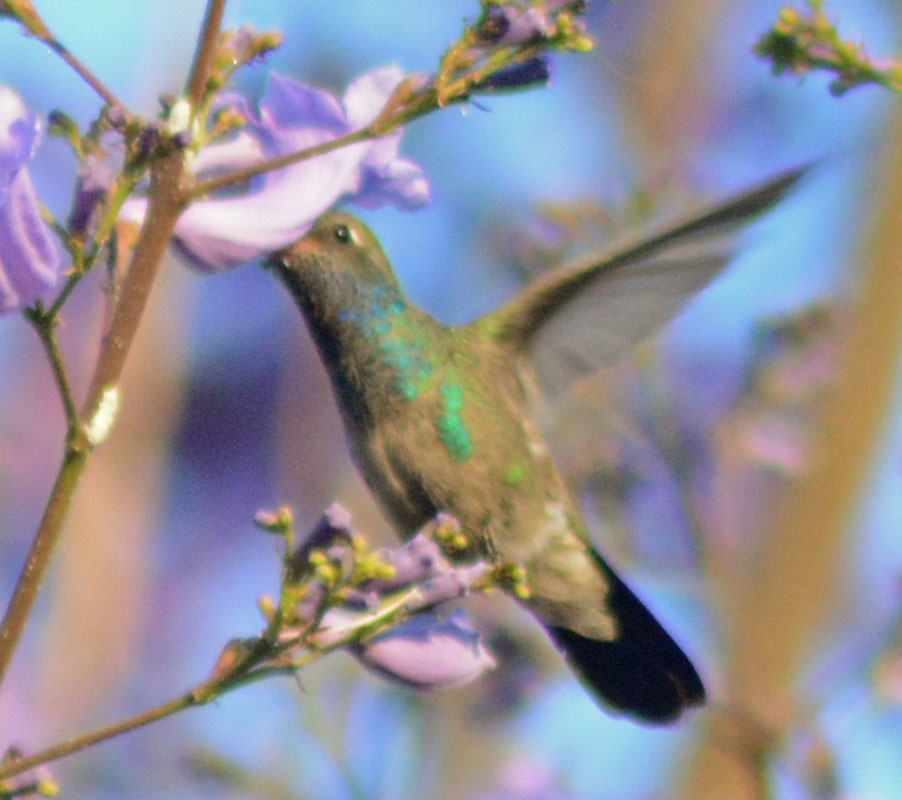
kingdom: Animalia
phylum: Chordata
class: Aves
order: Apodiformes
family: Trochilidae
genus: Cynanthus
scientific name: Cynanthus latirostris
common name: Broad-billed hummingbird
